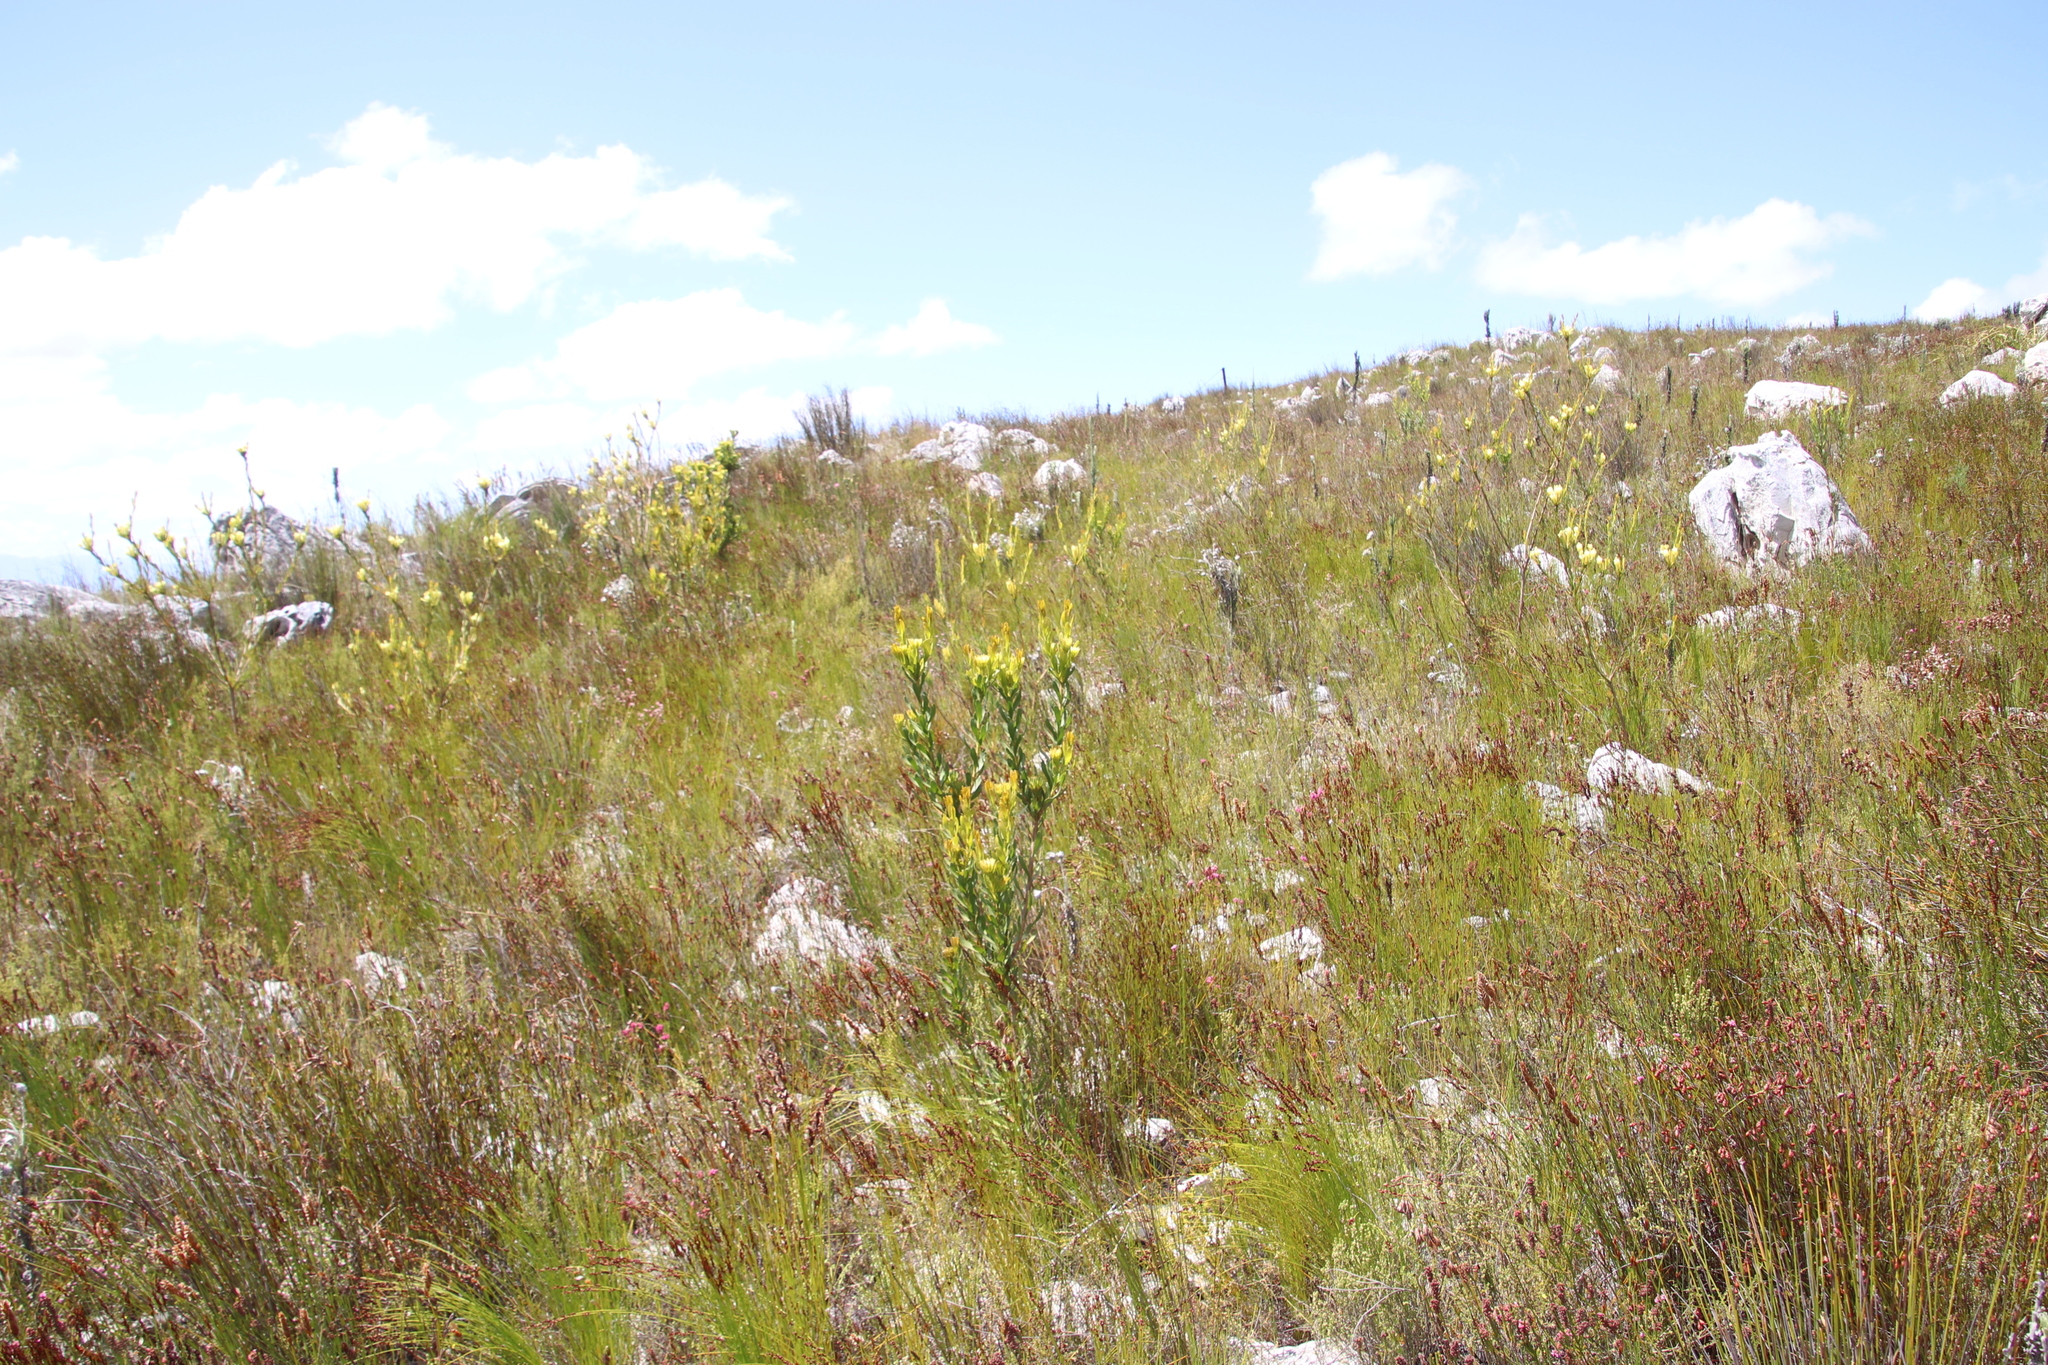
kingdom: Plantae
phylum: Tracheophyta
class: Magnoliopsida
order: Proteales
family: Proteaceae
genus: Aulax
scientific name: Aulax umbellata
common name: Broad-leaf featherbush
